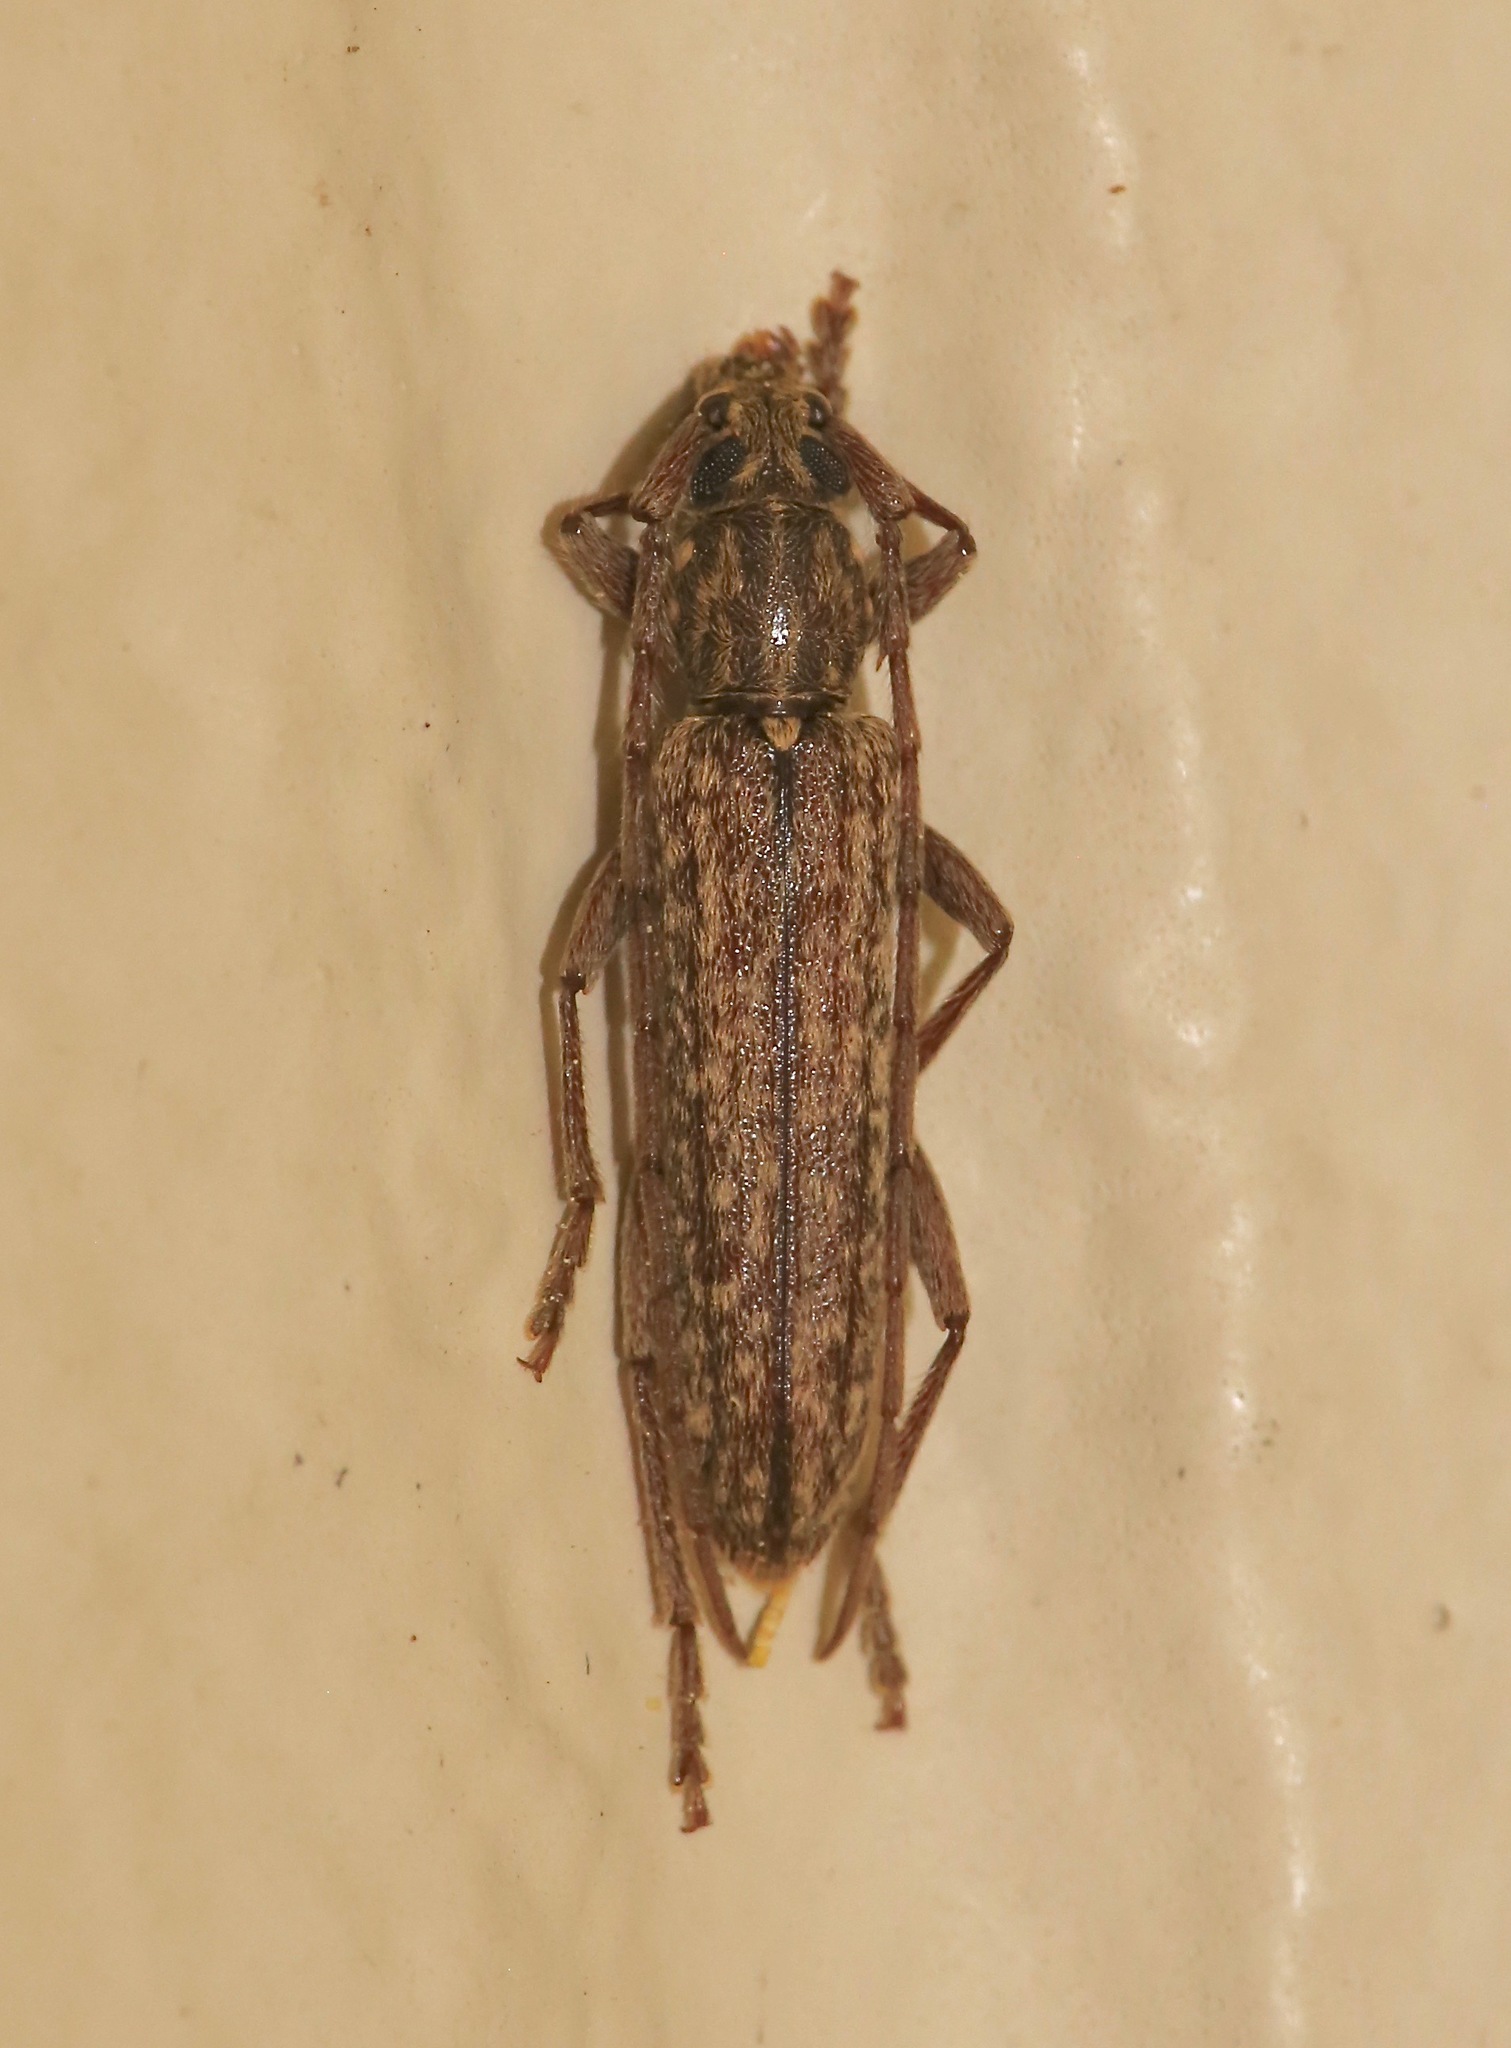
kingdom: Animalia
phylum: Arthropoda
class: Insecta
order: Coleoptera
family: Cerambycidae
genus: Anelaphus
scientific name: Anelaphus villosus
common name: Twig pruner
